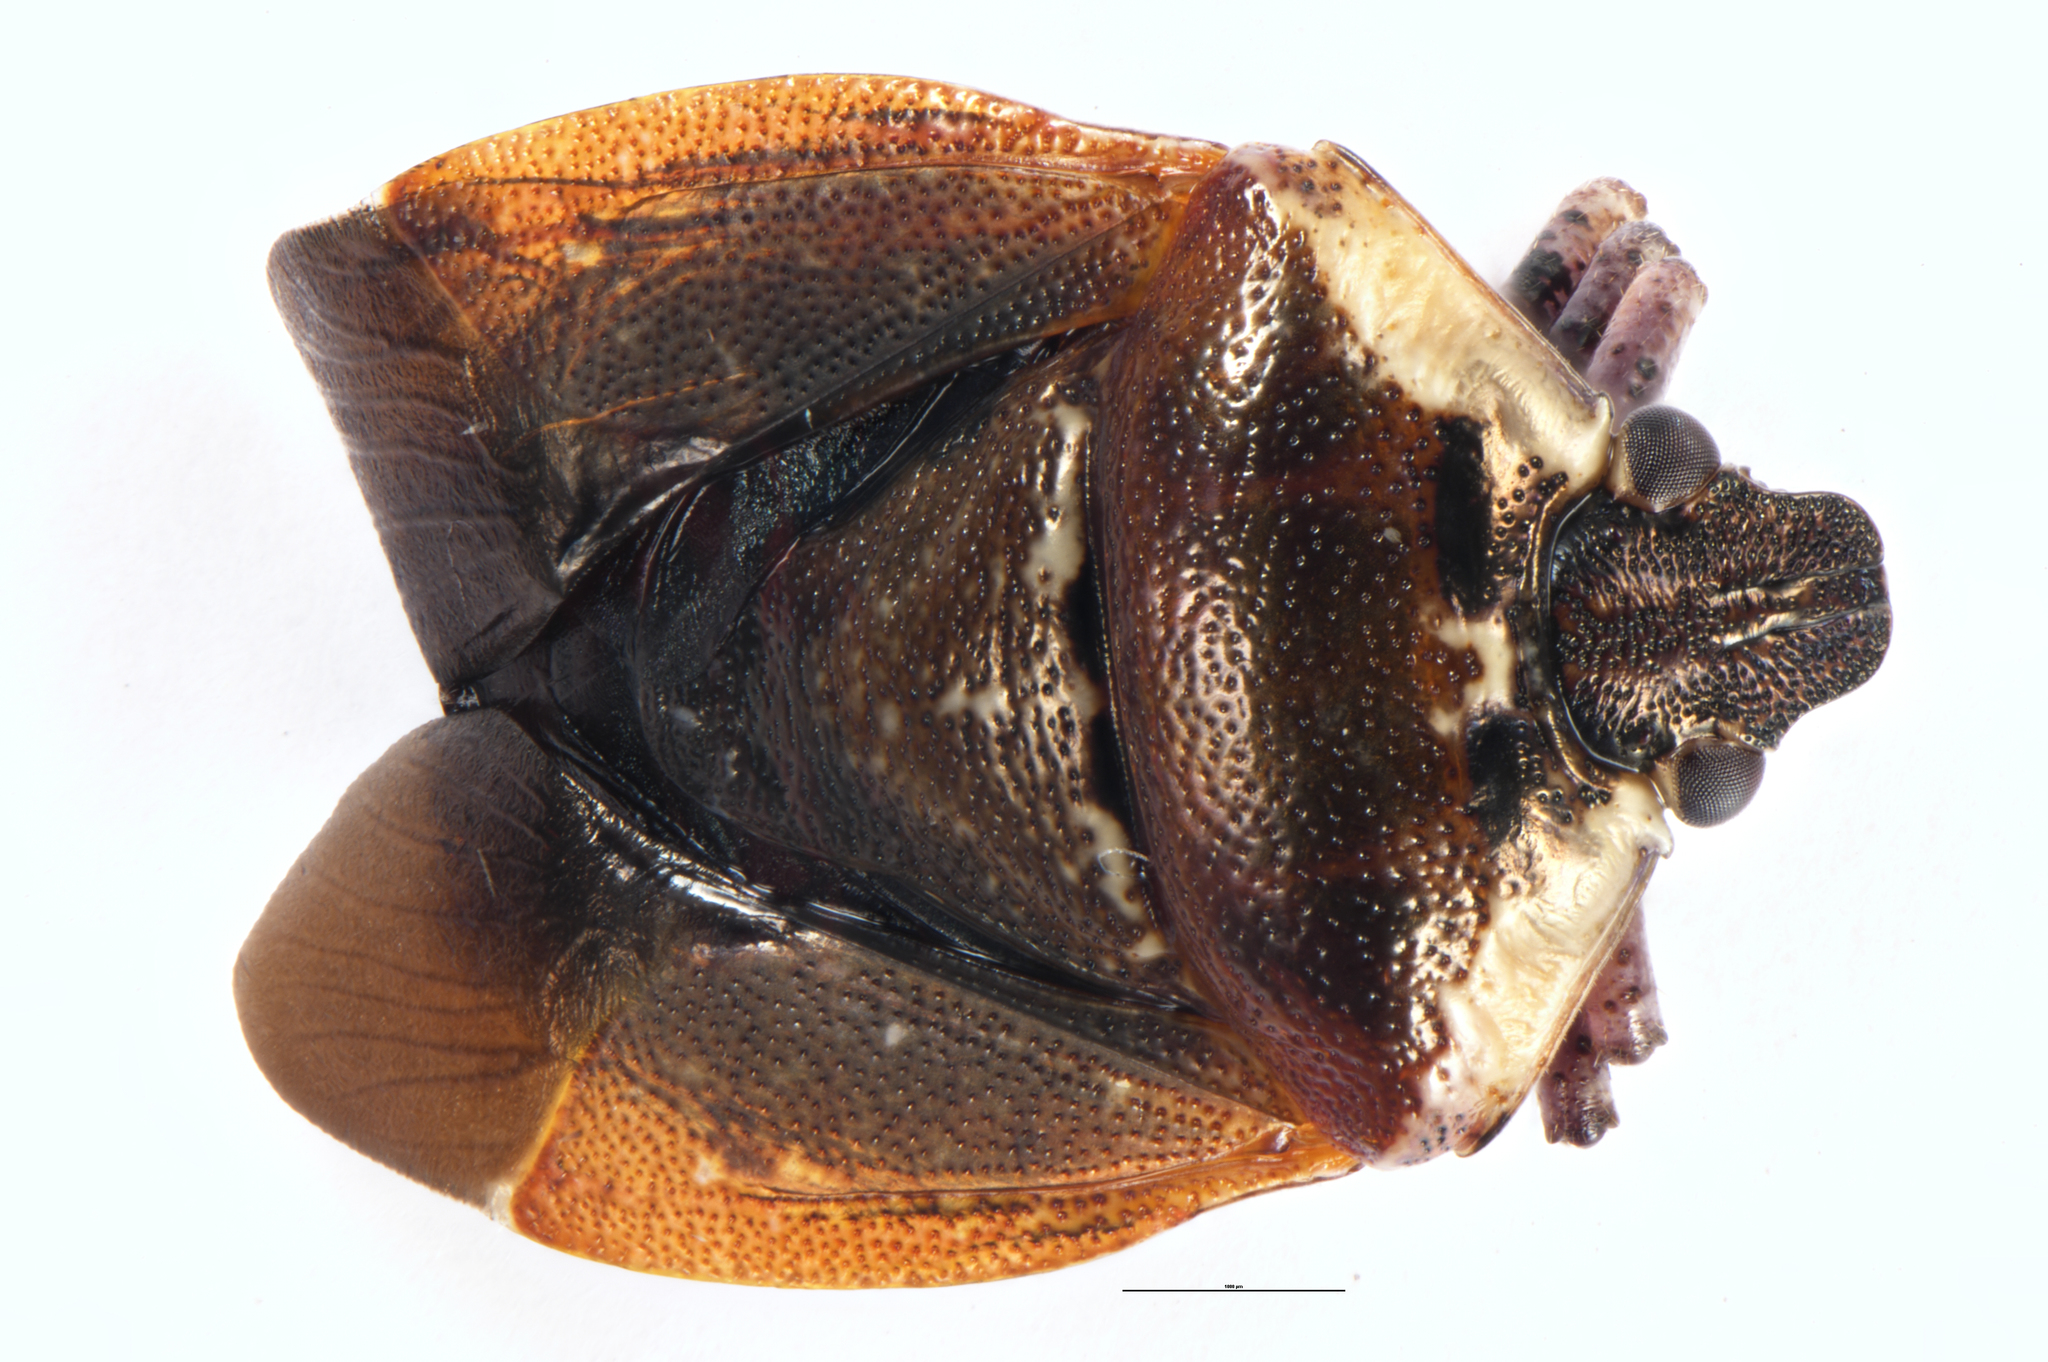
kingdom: Animalia
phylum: Arthropoda
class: Insecta
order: Hemiptera
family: Pentatomidae
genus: Monteithiella
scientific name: Monteithiella
